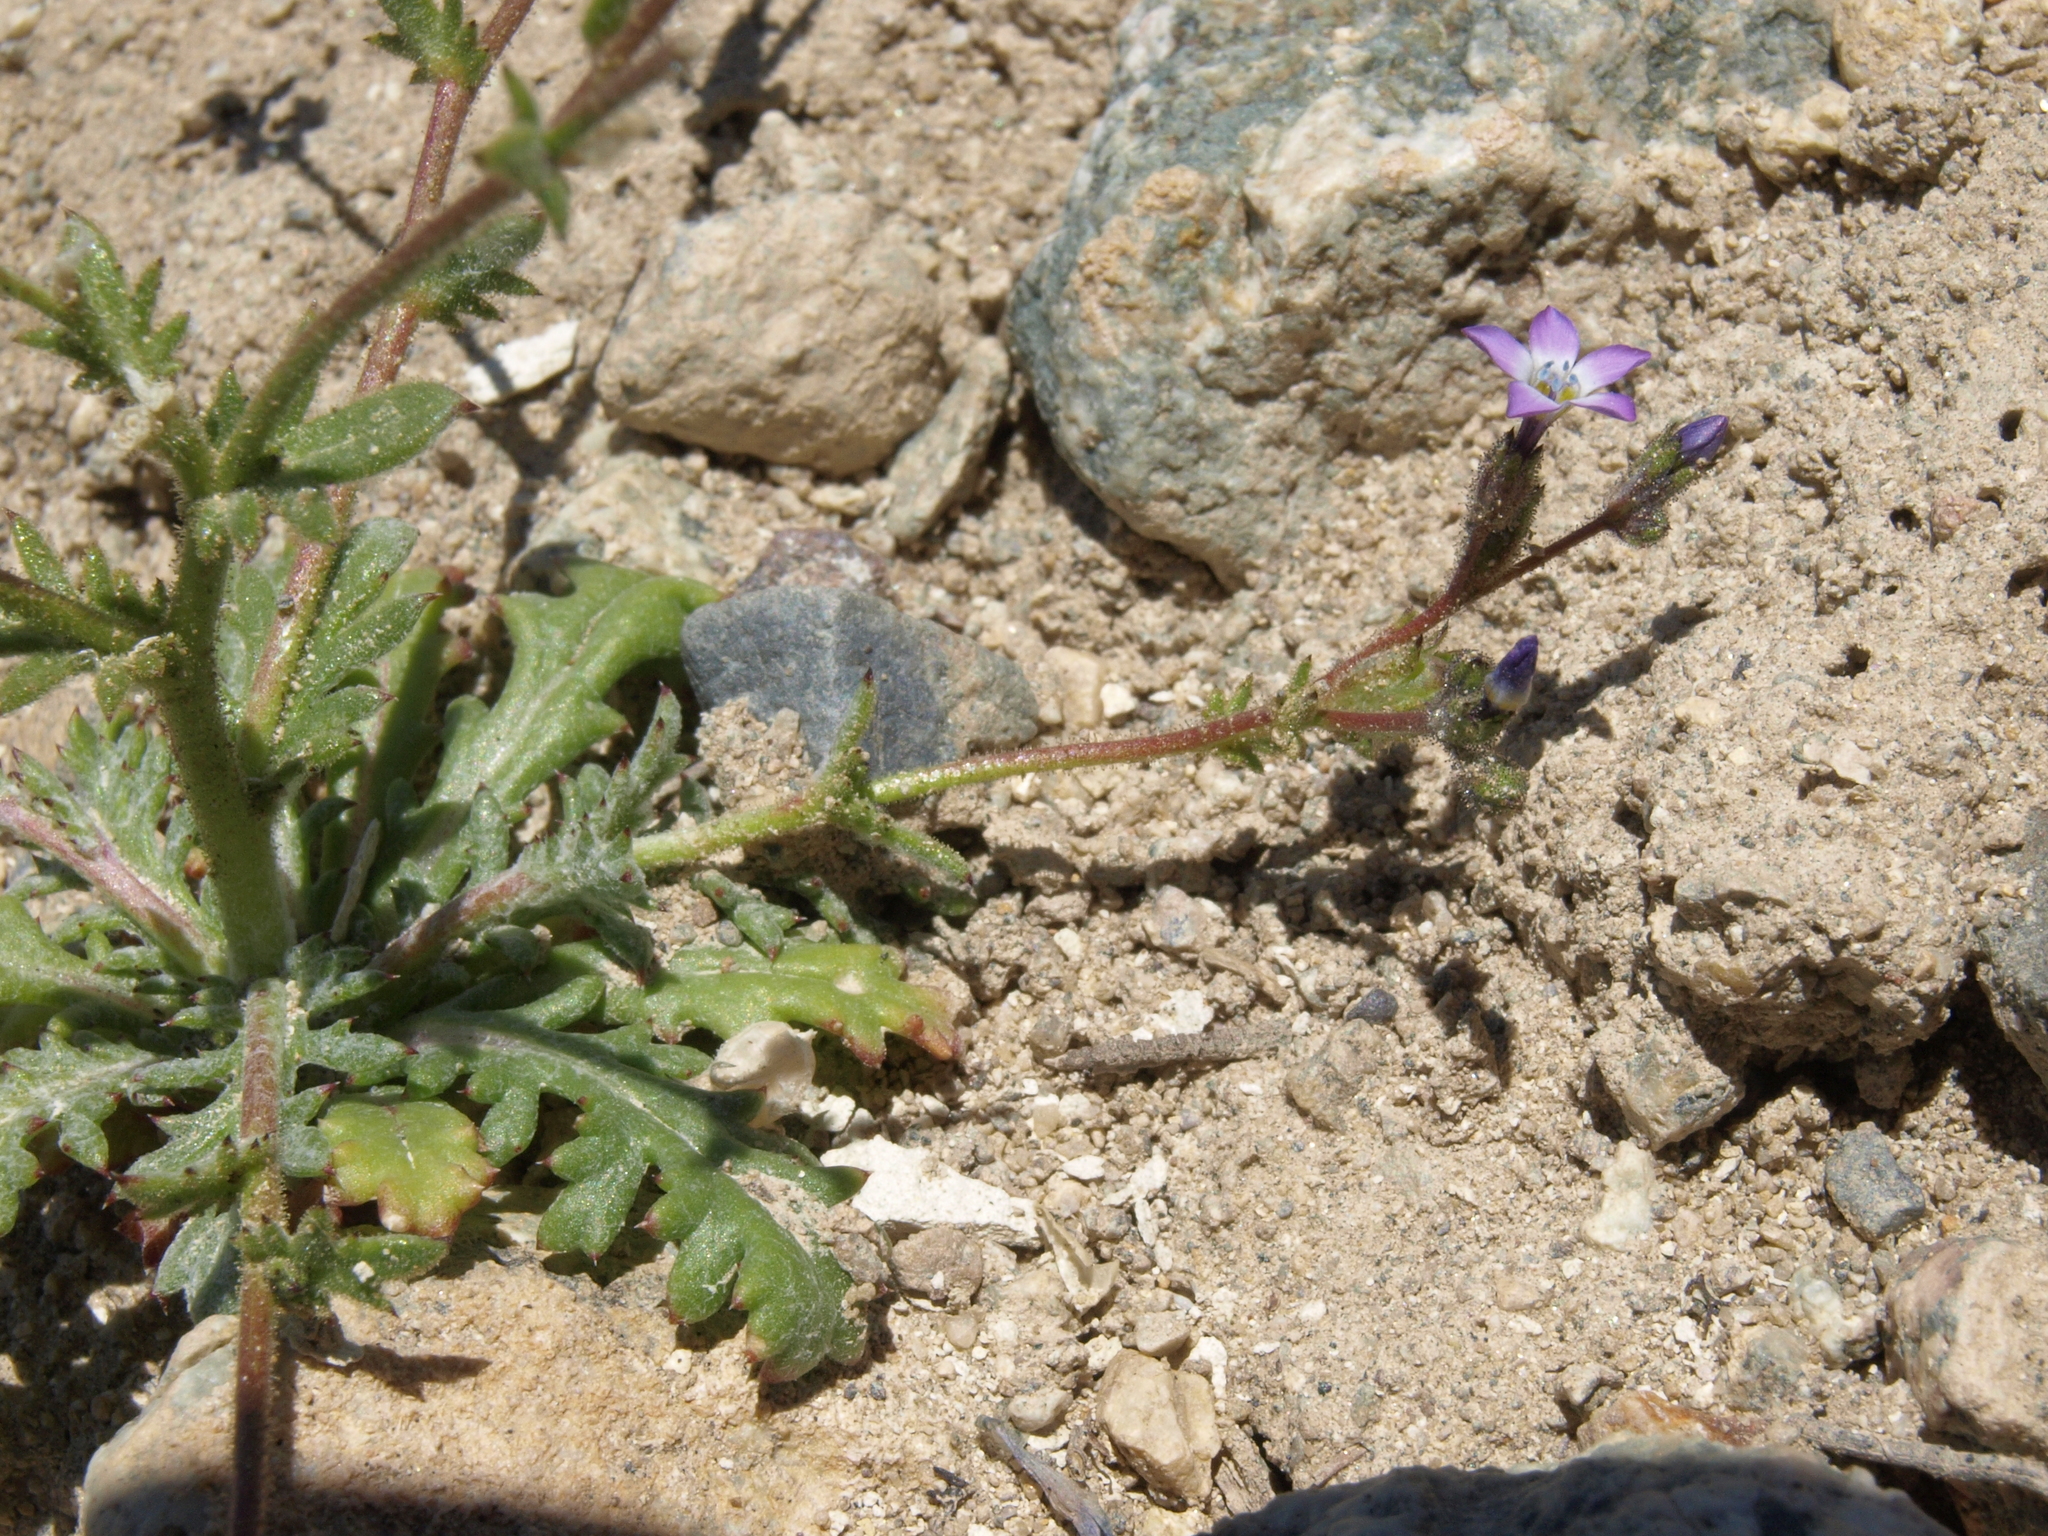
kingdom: Plantae
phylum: Tracheophyta
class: Magnoliopsida
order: Ericales
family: Polemoniaceae
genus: Gilia
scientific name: Gilia brecciarum
